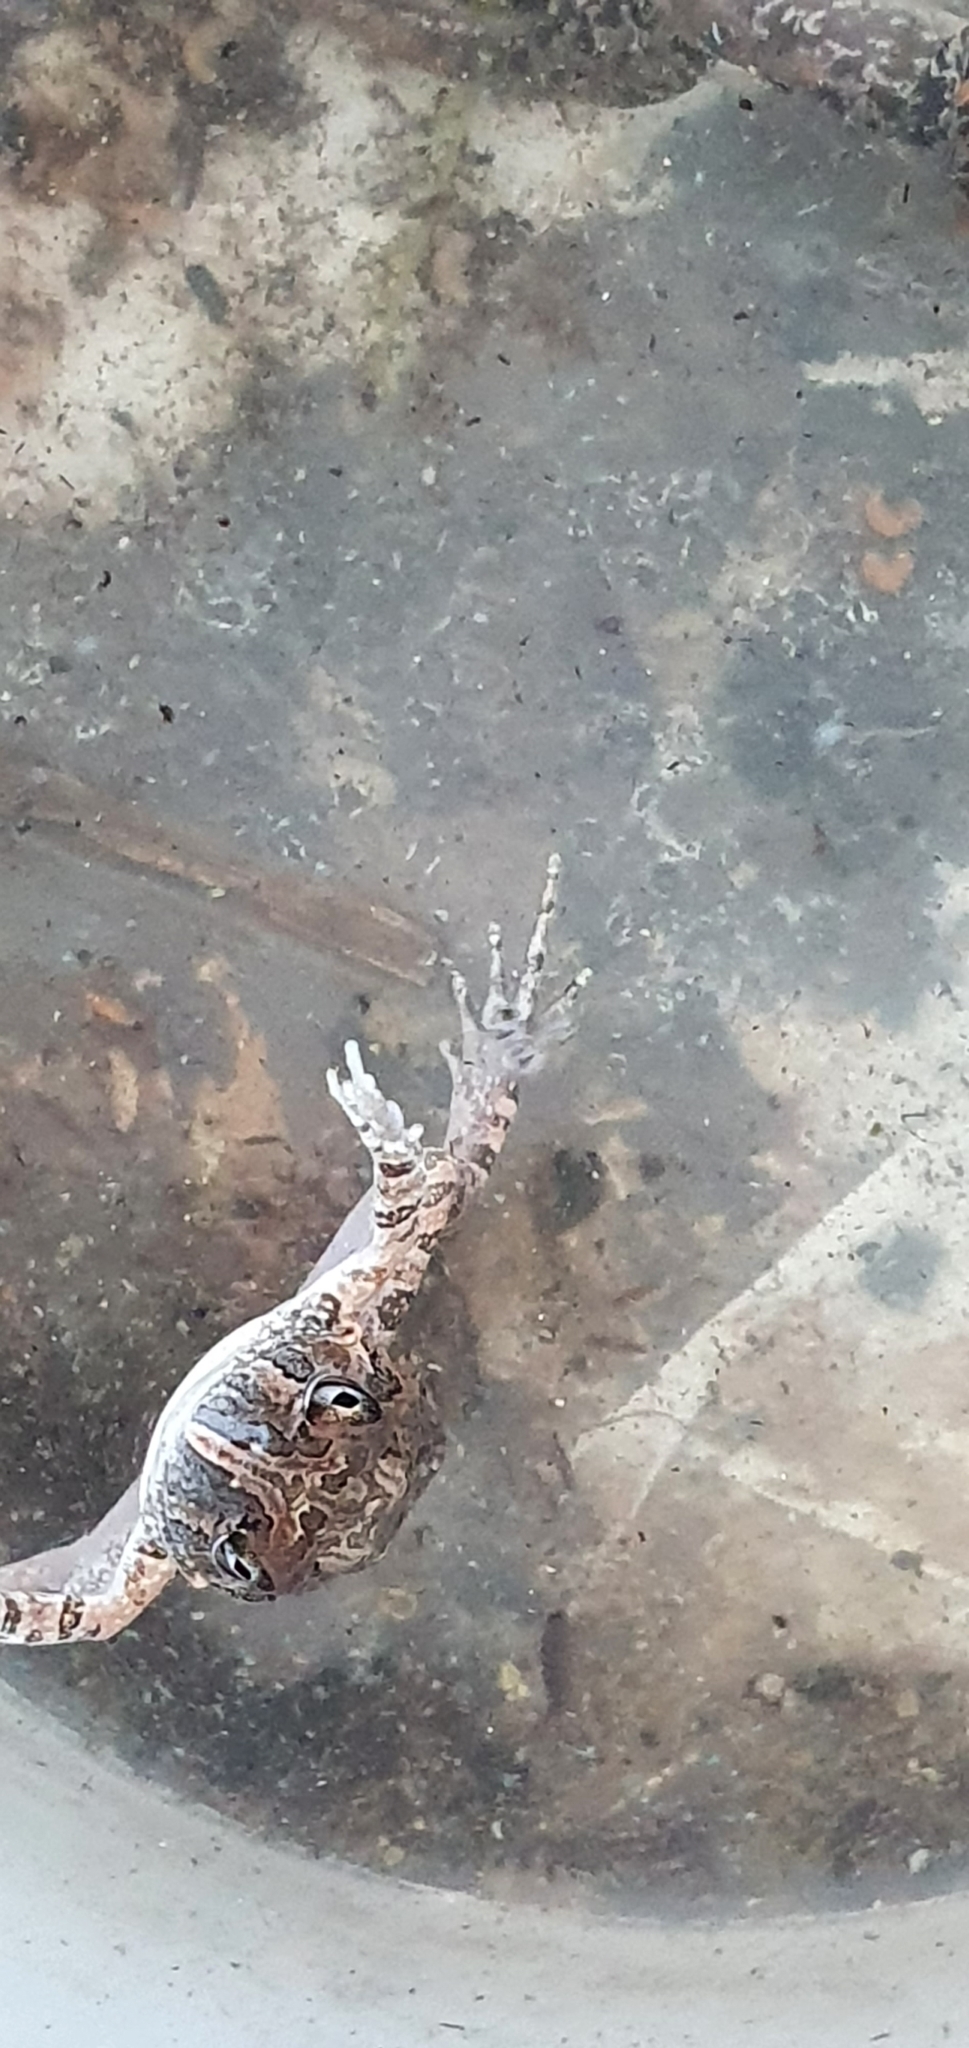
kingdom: Animalia
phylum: Chordata
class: Amphibia
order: Anura
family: Limnodynastidae
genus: Platyplectrum
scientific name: Platyplectrum ornatum
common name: Ornate burrowing frog
